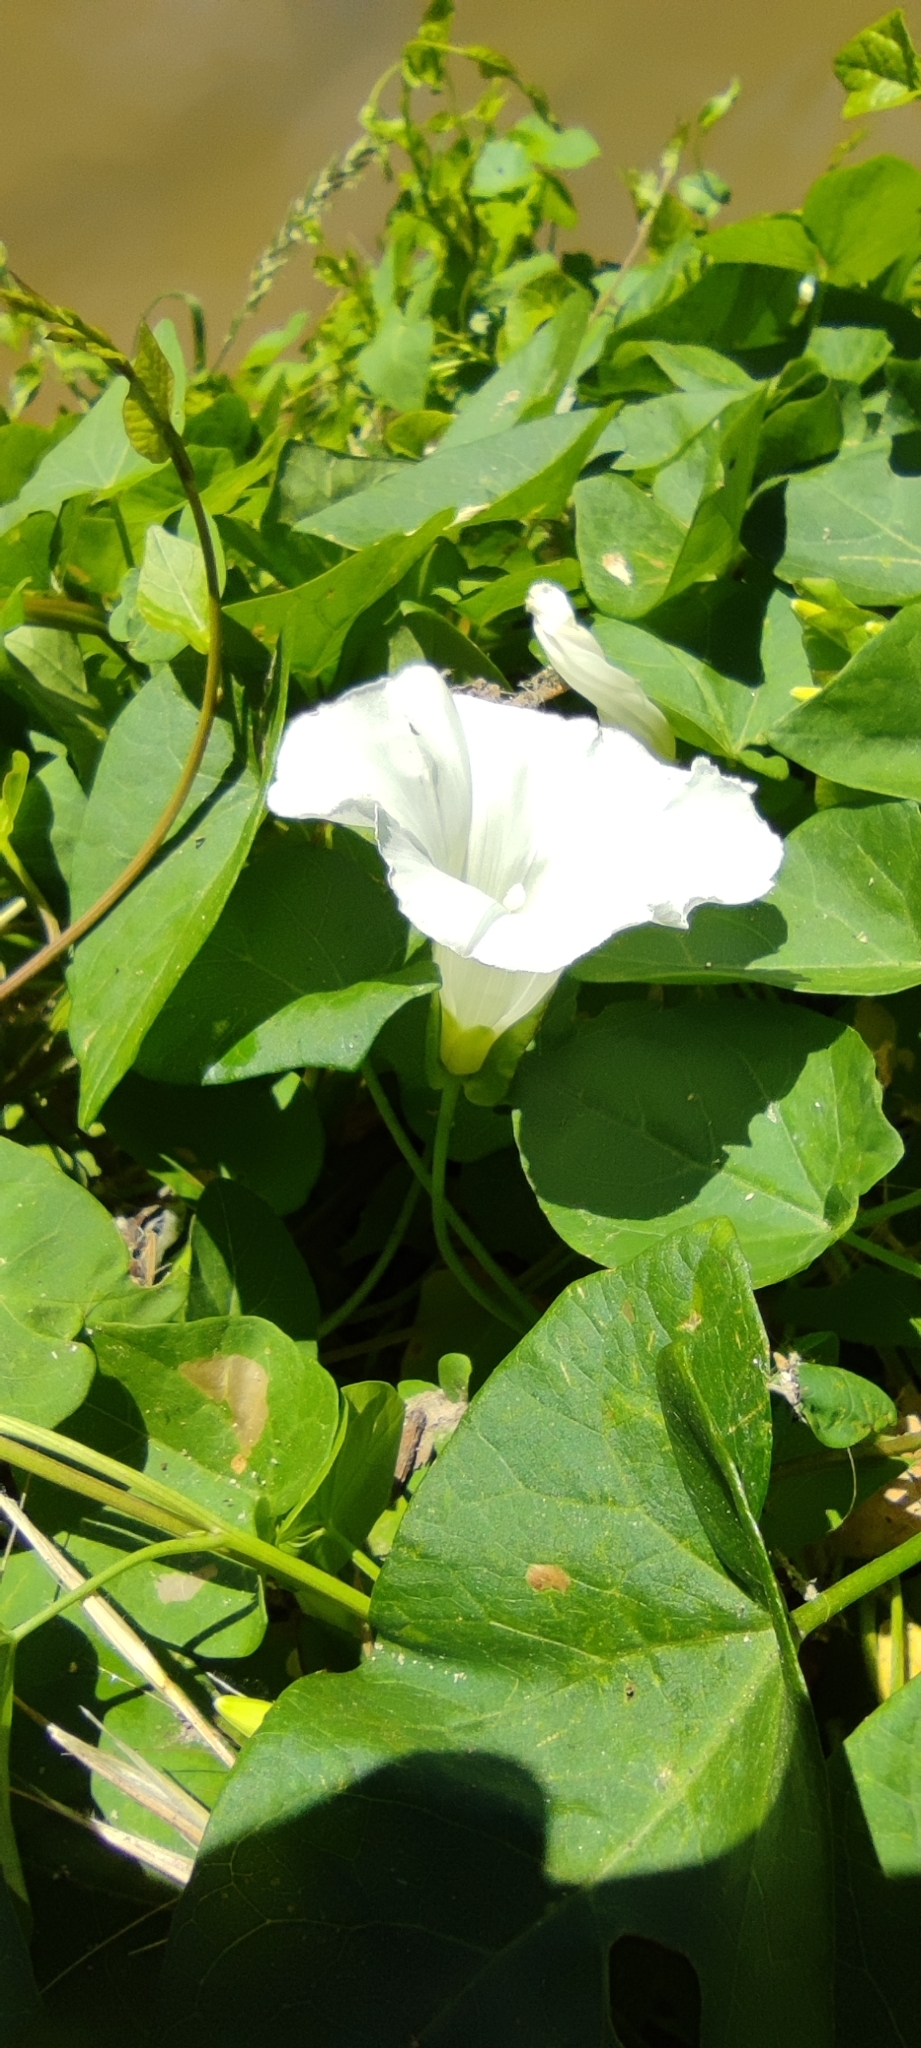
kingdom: Plantae
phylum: Tracheophyta
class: Magnoliopsida
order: Solanales
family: Convolvulaceae
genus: Calystegia
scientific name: Calystegia sepium
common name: Hedge bindweed
